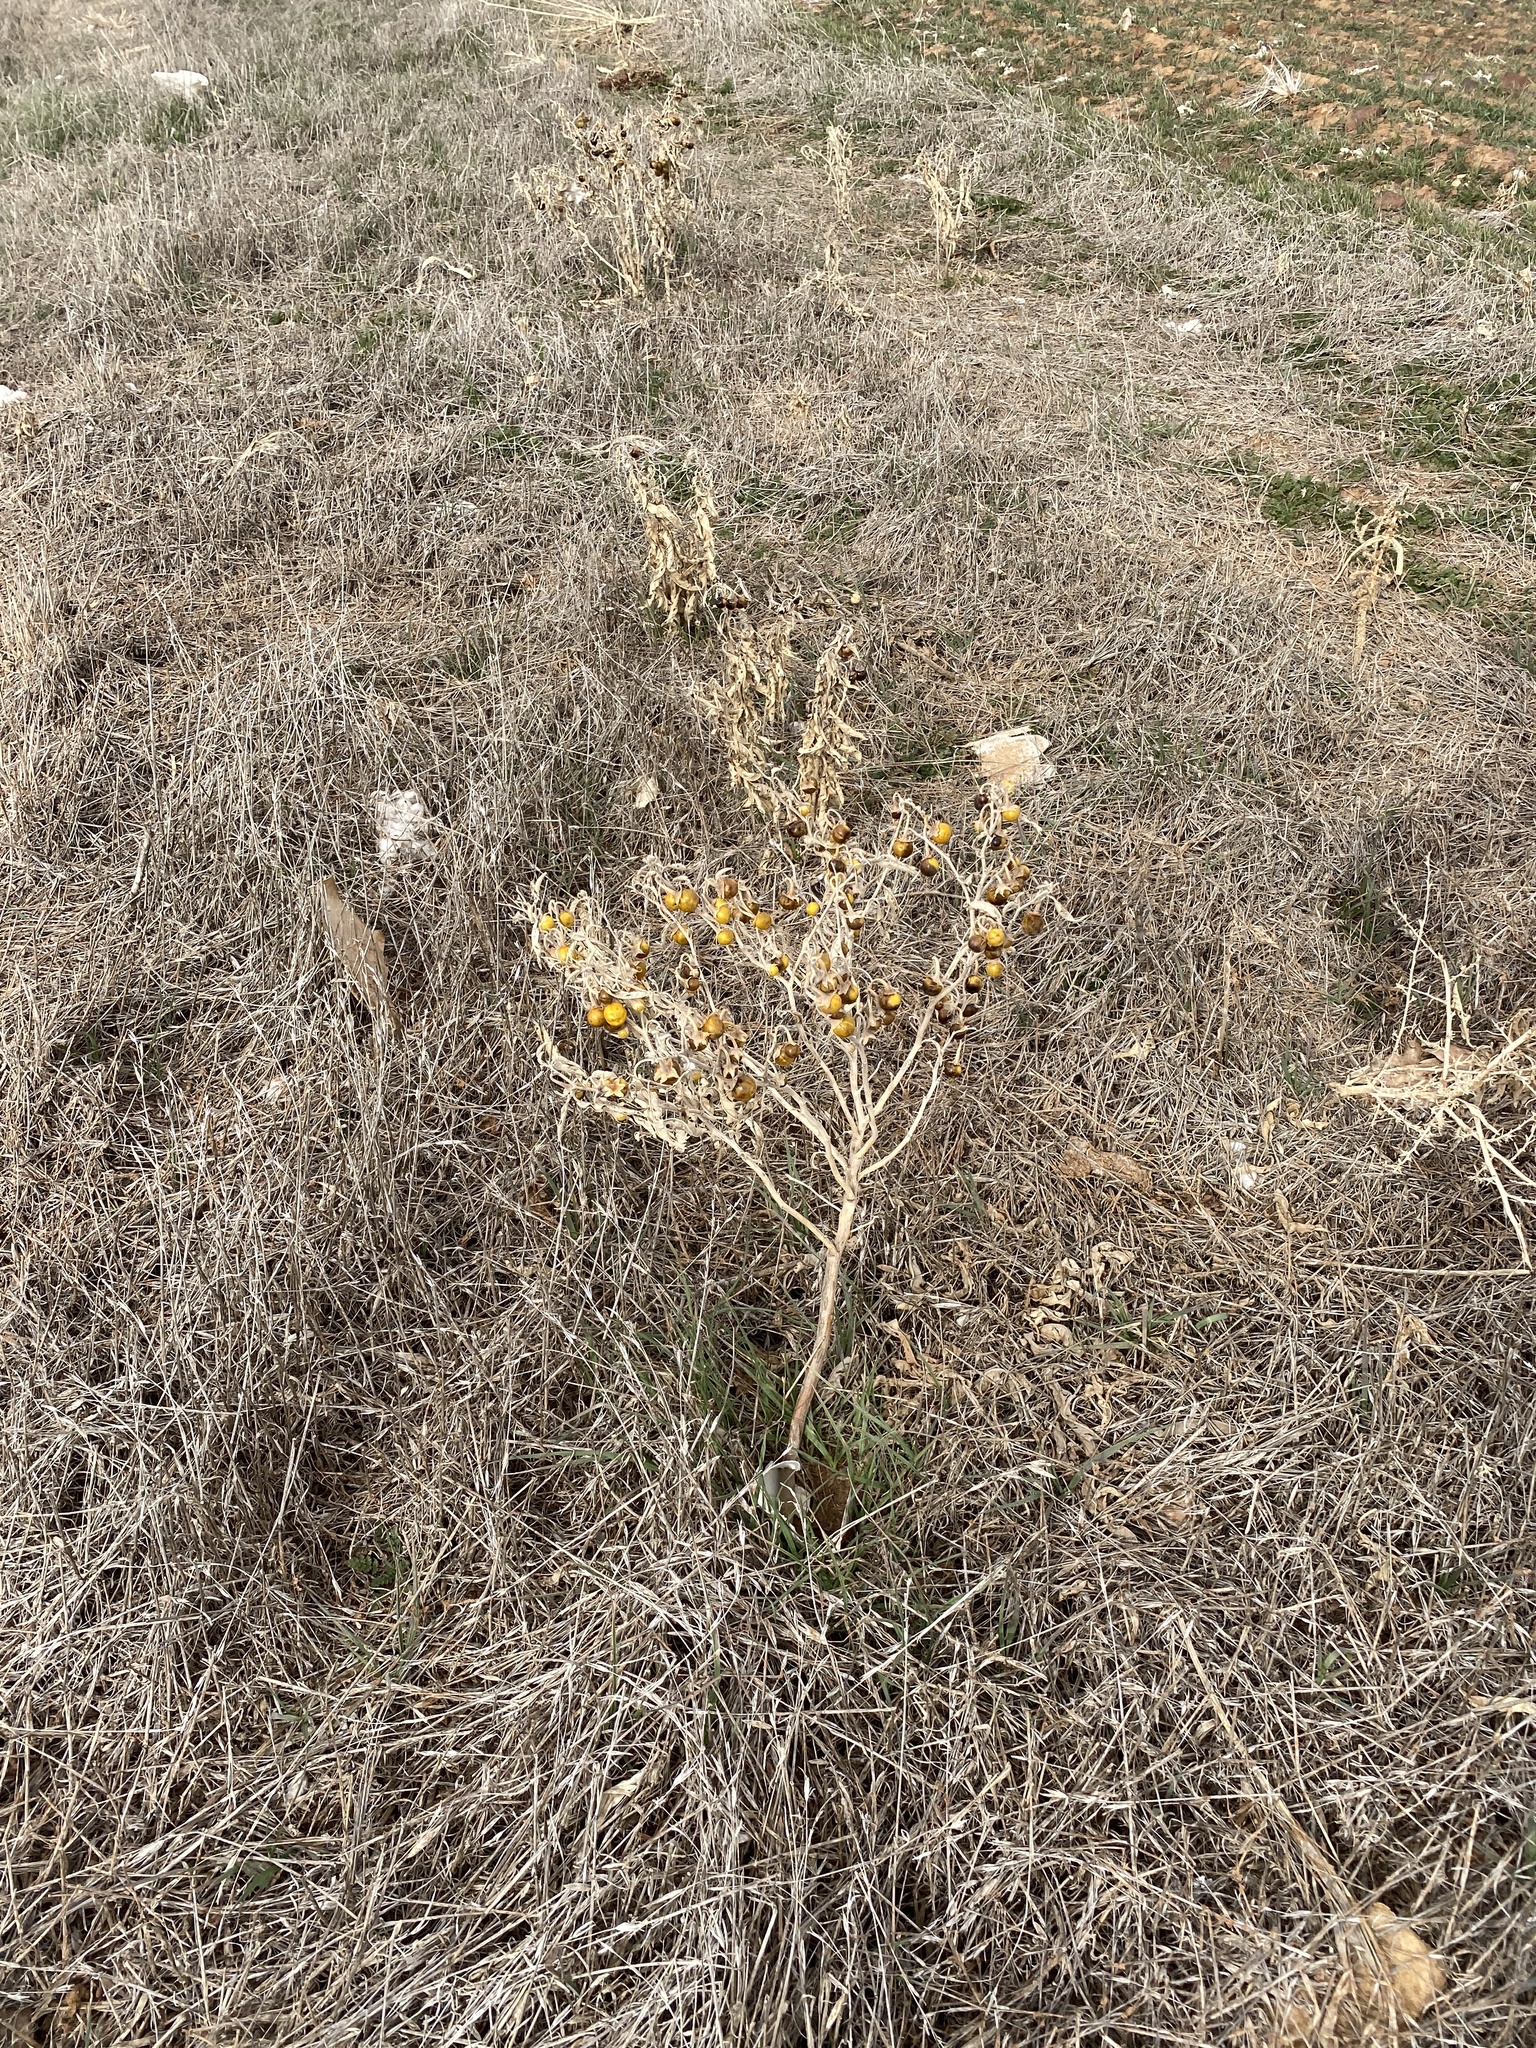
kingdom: Plantae
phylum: Tracheophyta
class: Magnoliopsida
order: Solanales
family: Solanaceae
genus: Solanum
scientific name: Solanum elaeagnifolium
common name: Silverleaf nightshade
